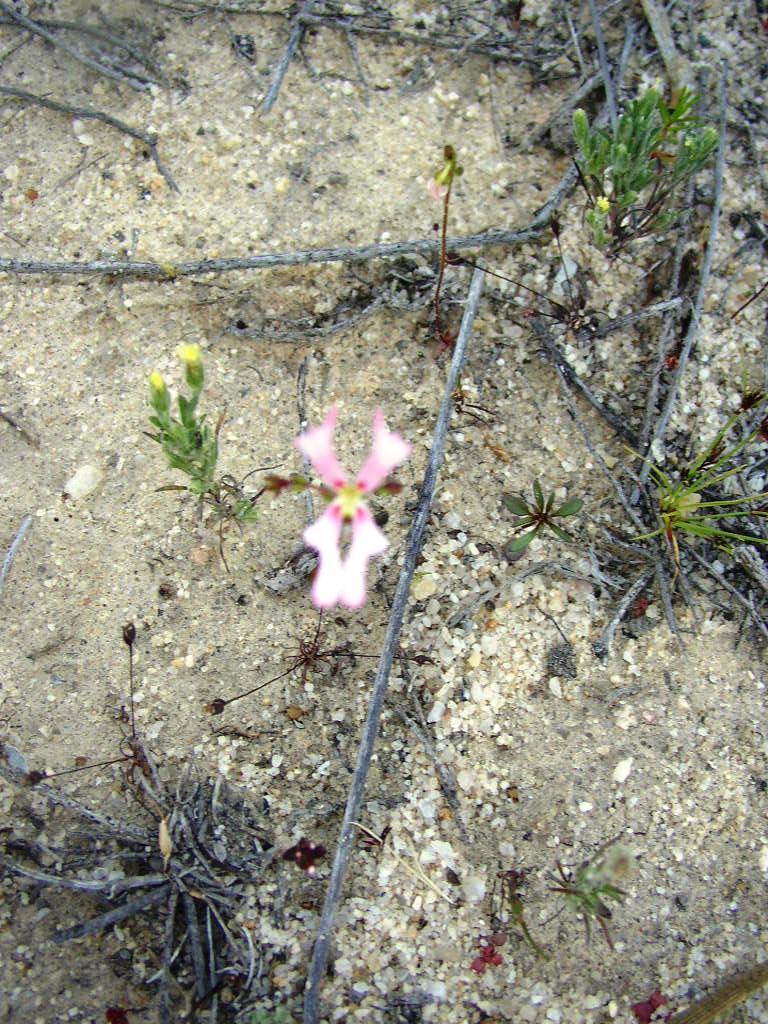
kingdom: Plantae
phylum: Tracheophyta
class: Magnoliopsida
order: Asterales
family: Stylidiaceae
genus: Stylidium
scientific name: Stylidium androsaceum
